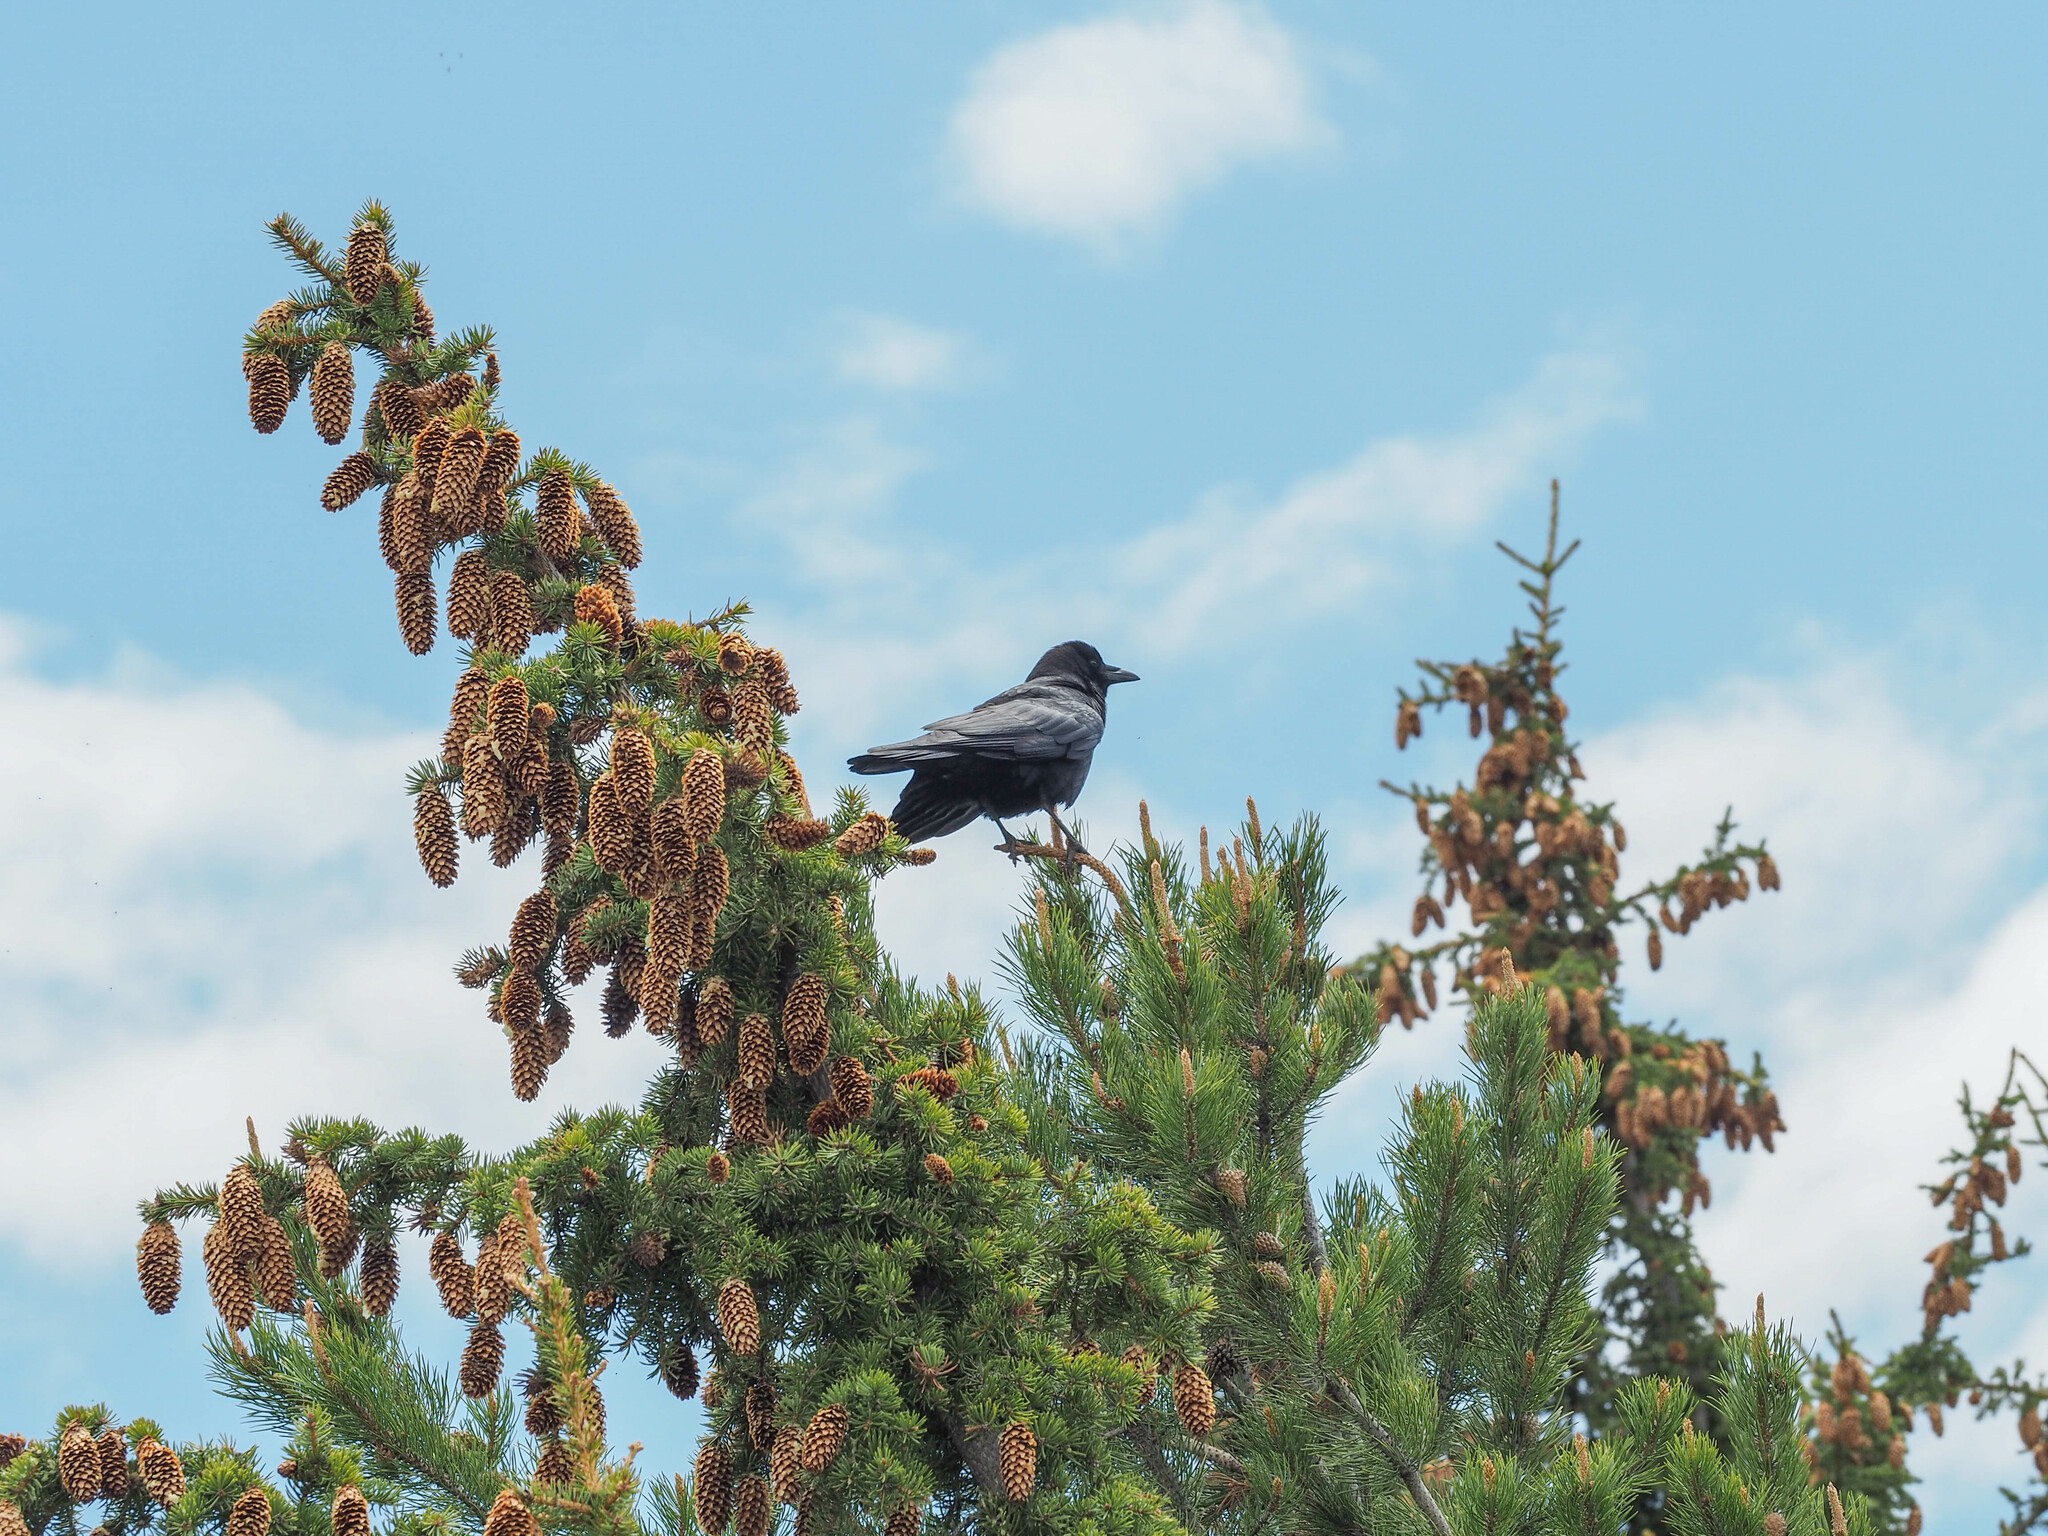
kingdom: Animalia
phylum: Chordata
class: Aves
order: Passeriformes
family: Corvidae
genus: Corvus
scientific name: Corvus corax
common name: Common raven
